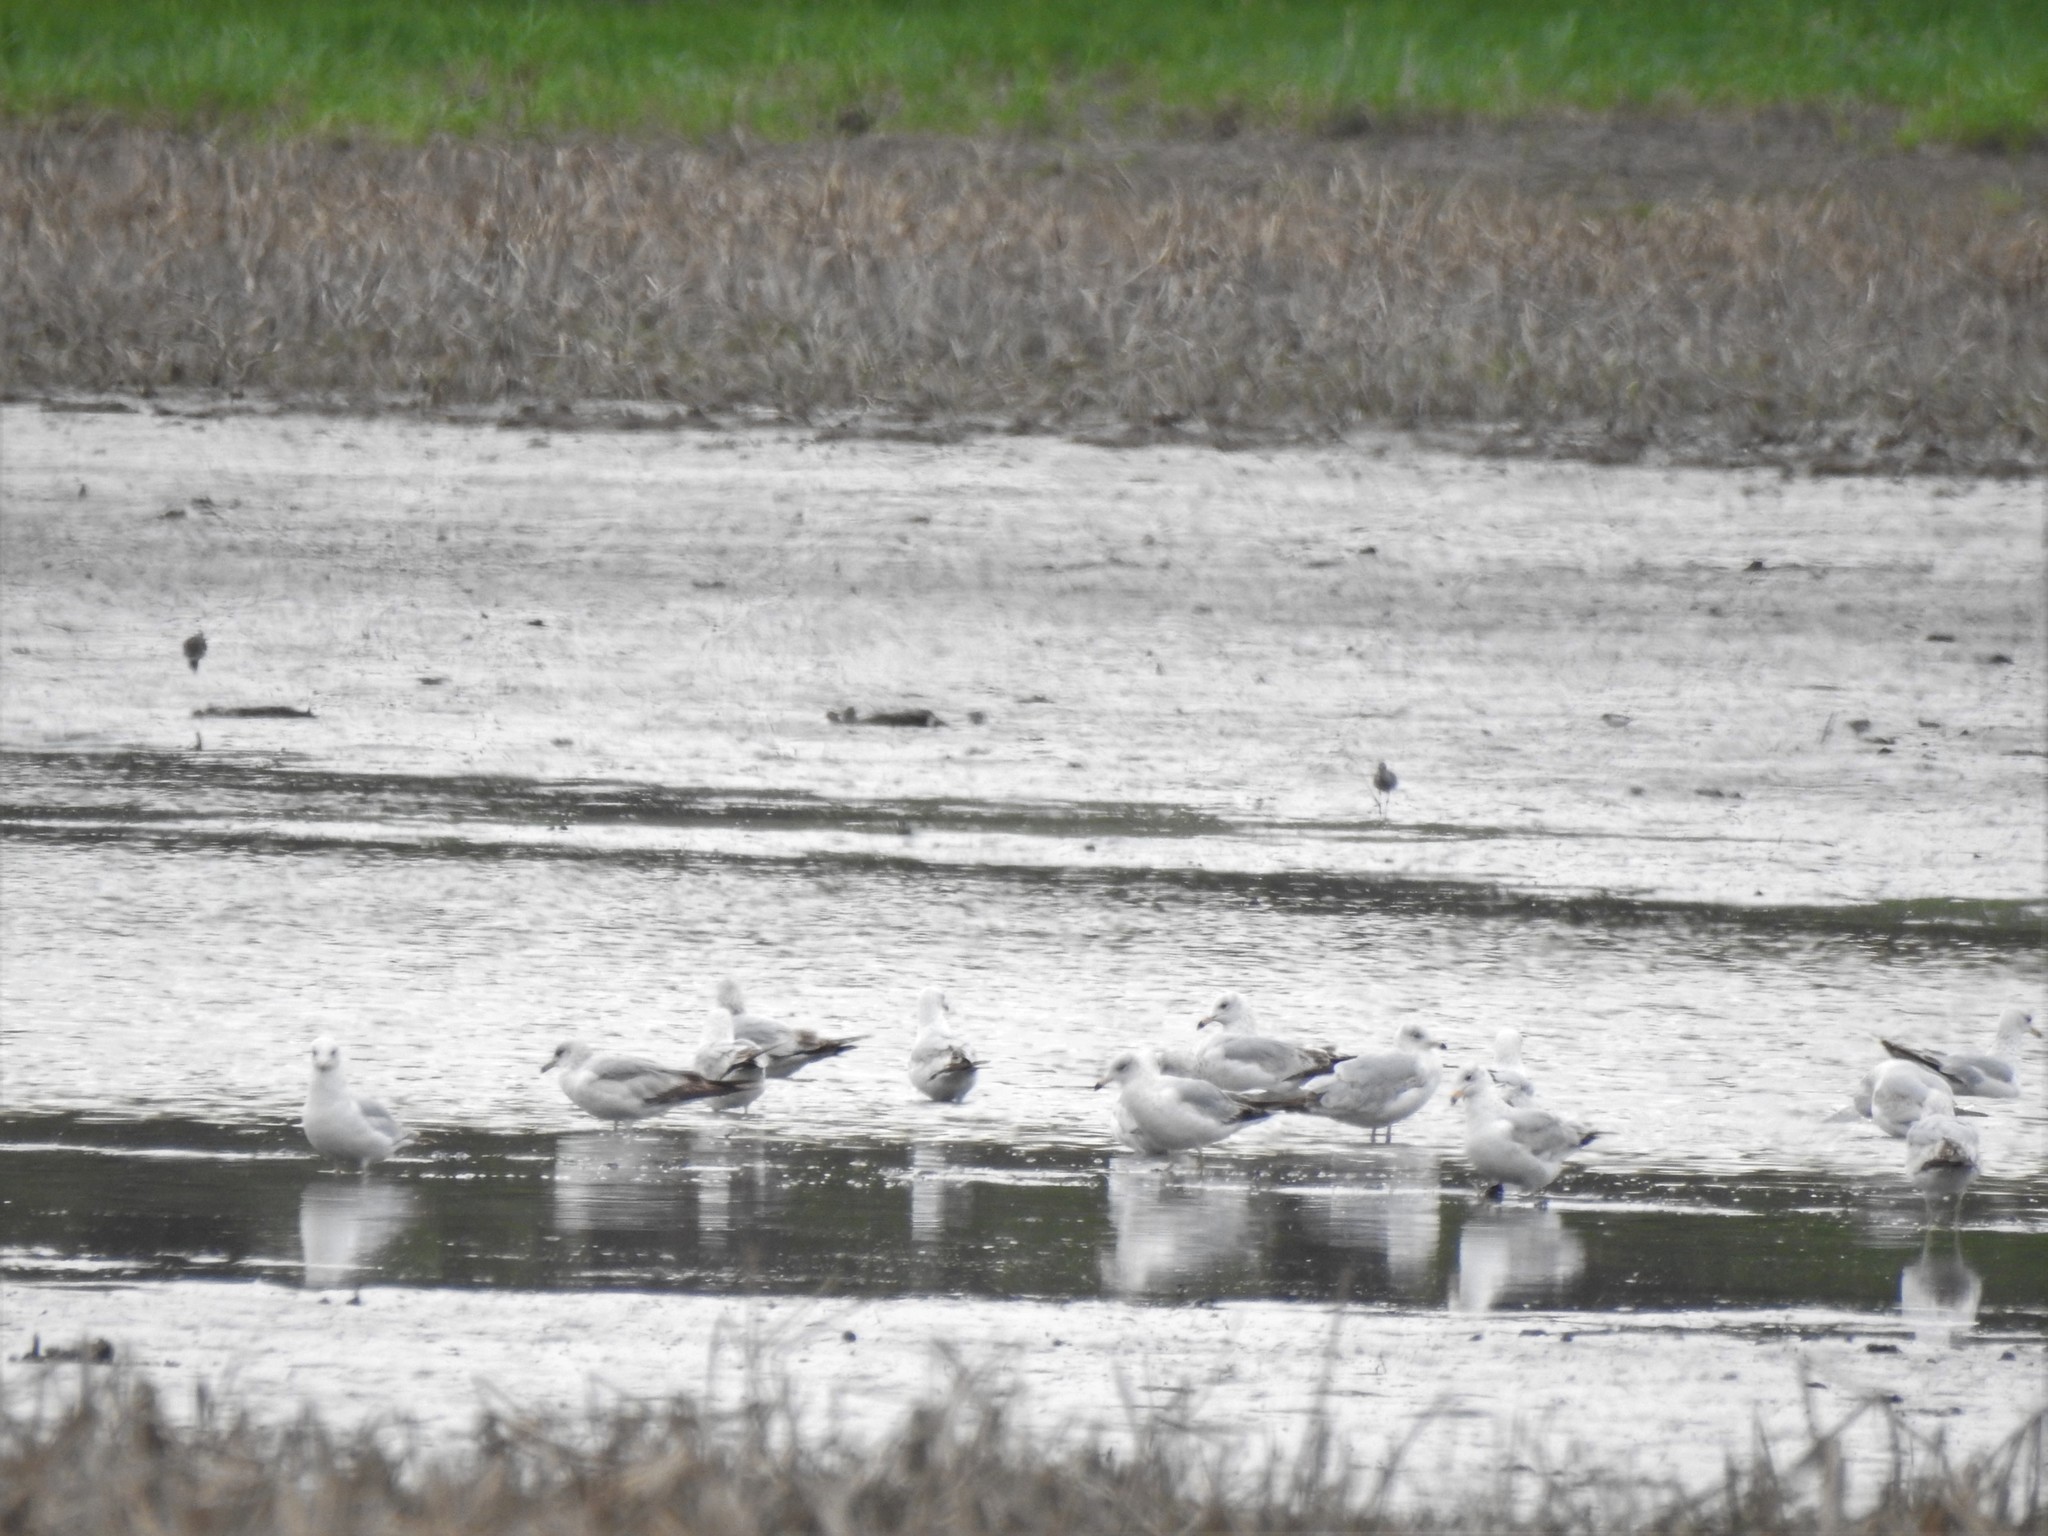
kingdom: Animalia
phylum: Chordata
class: Aves
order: Charadriiformes
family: Laridae
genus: Larus
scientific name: Larus delawarensis
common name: Ring-billed gull
